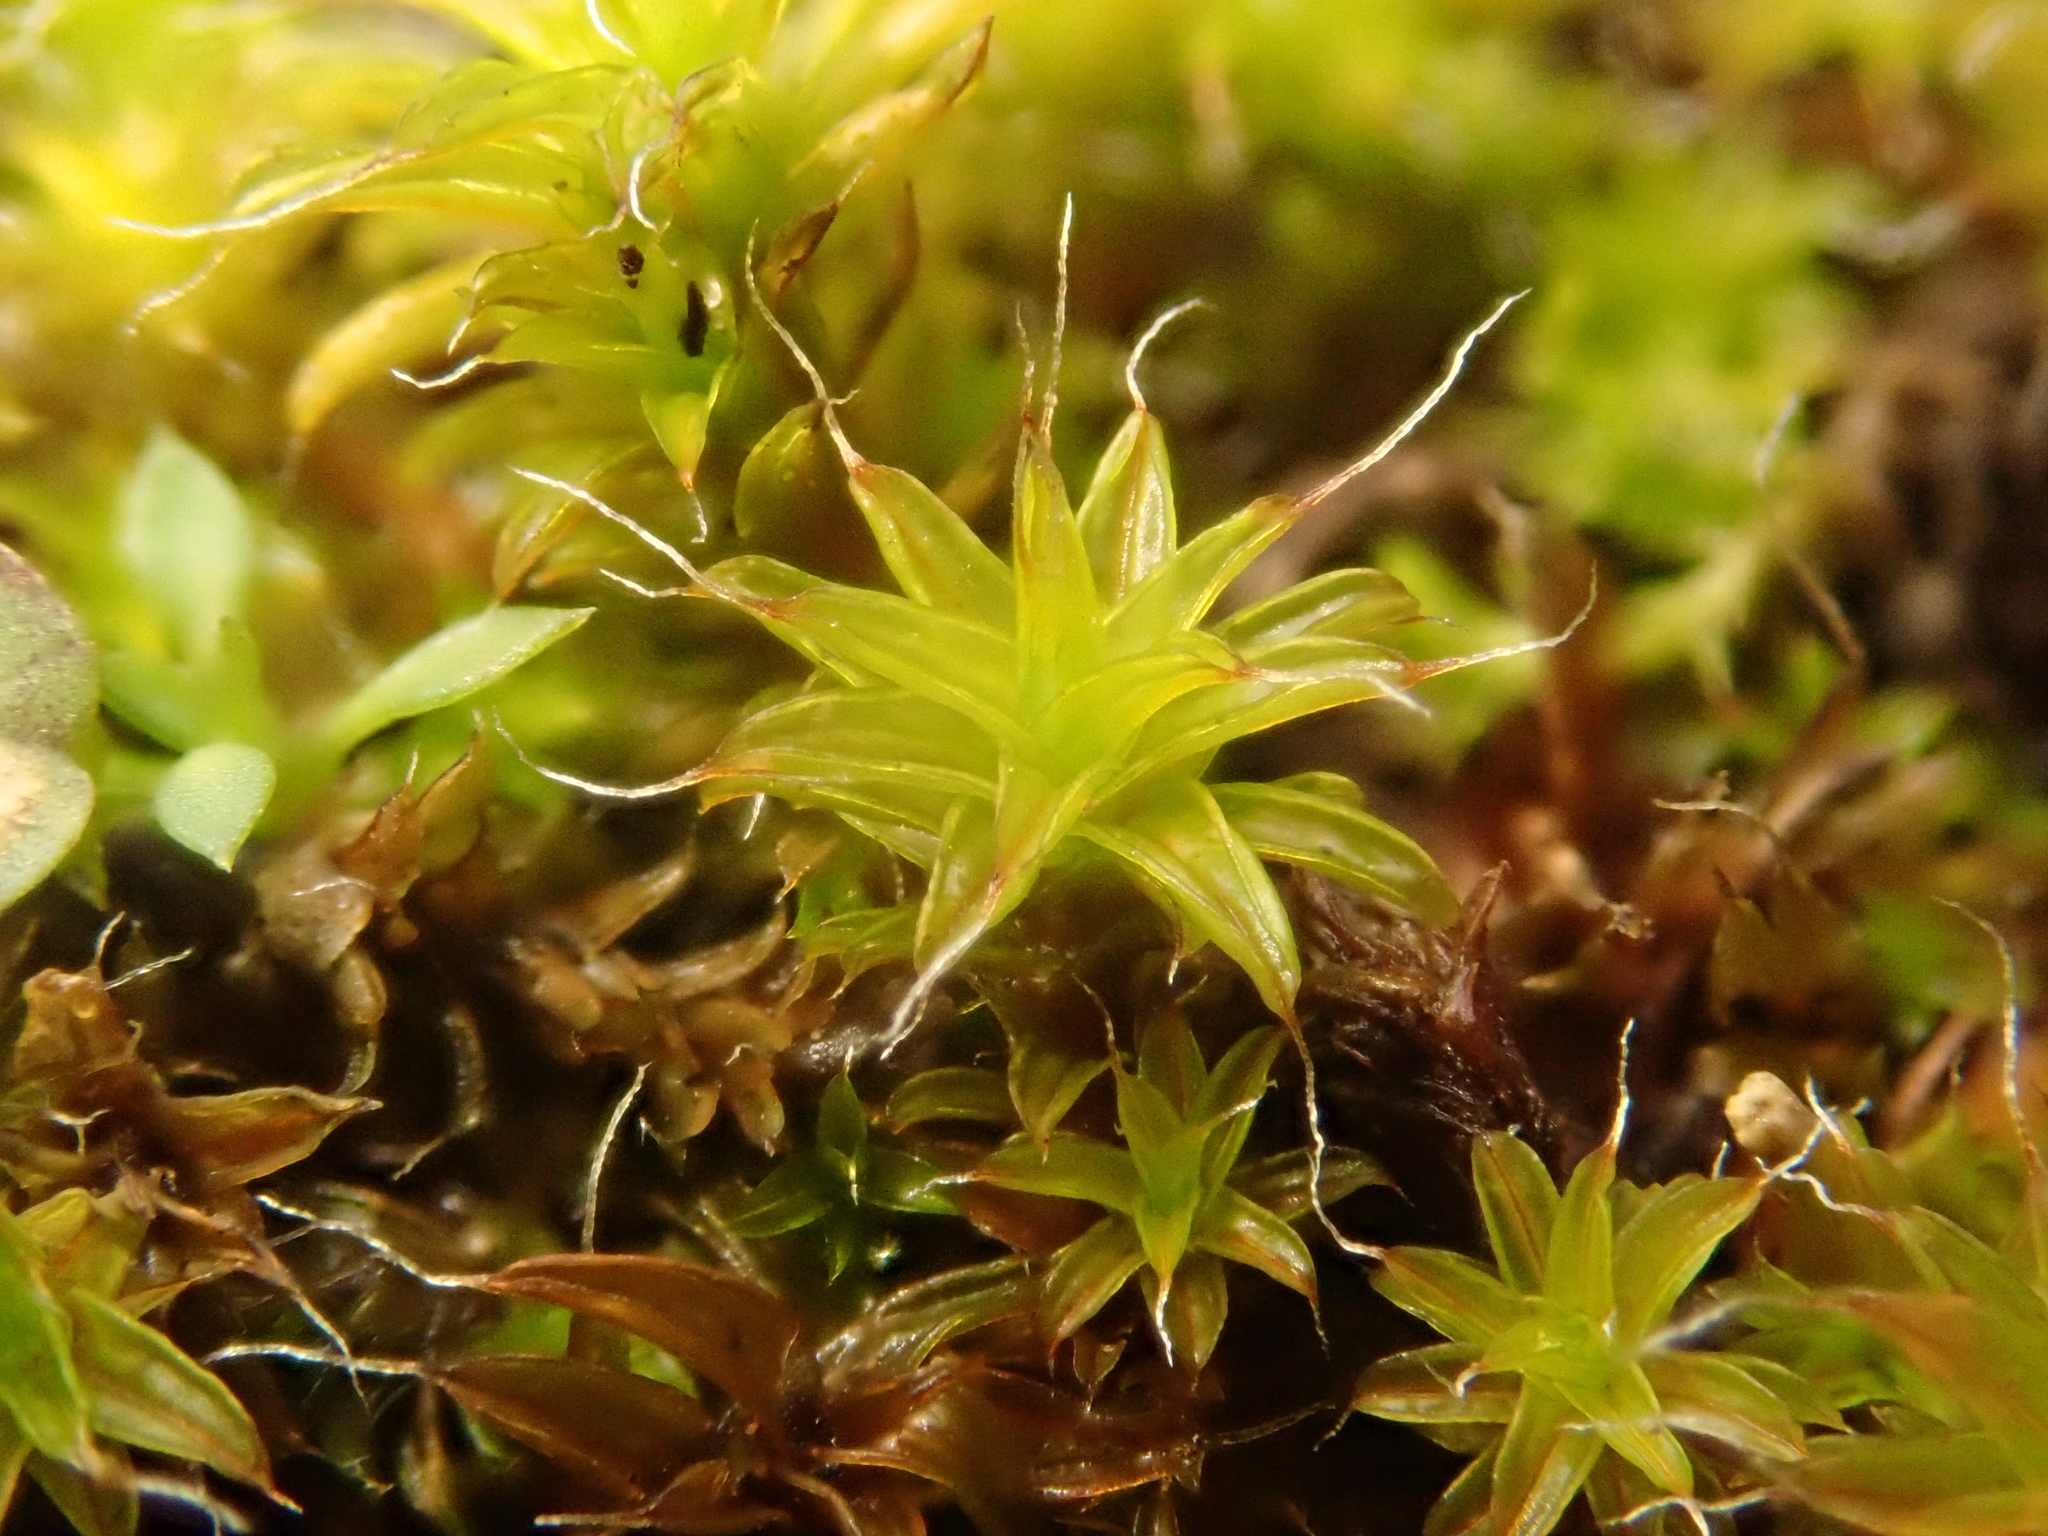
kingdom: Plantae
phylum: Bryophyta
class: Bryopsida
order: Pottiales
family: Pottiaceae
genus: Syntrichia
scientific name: Syntrichia ruralis
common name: Sidewalk screw moss
